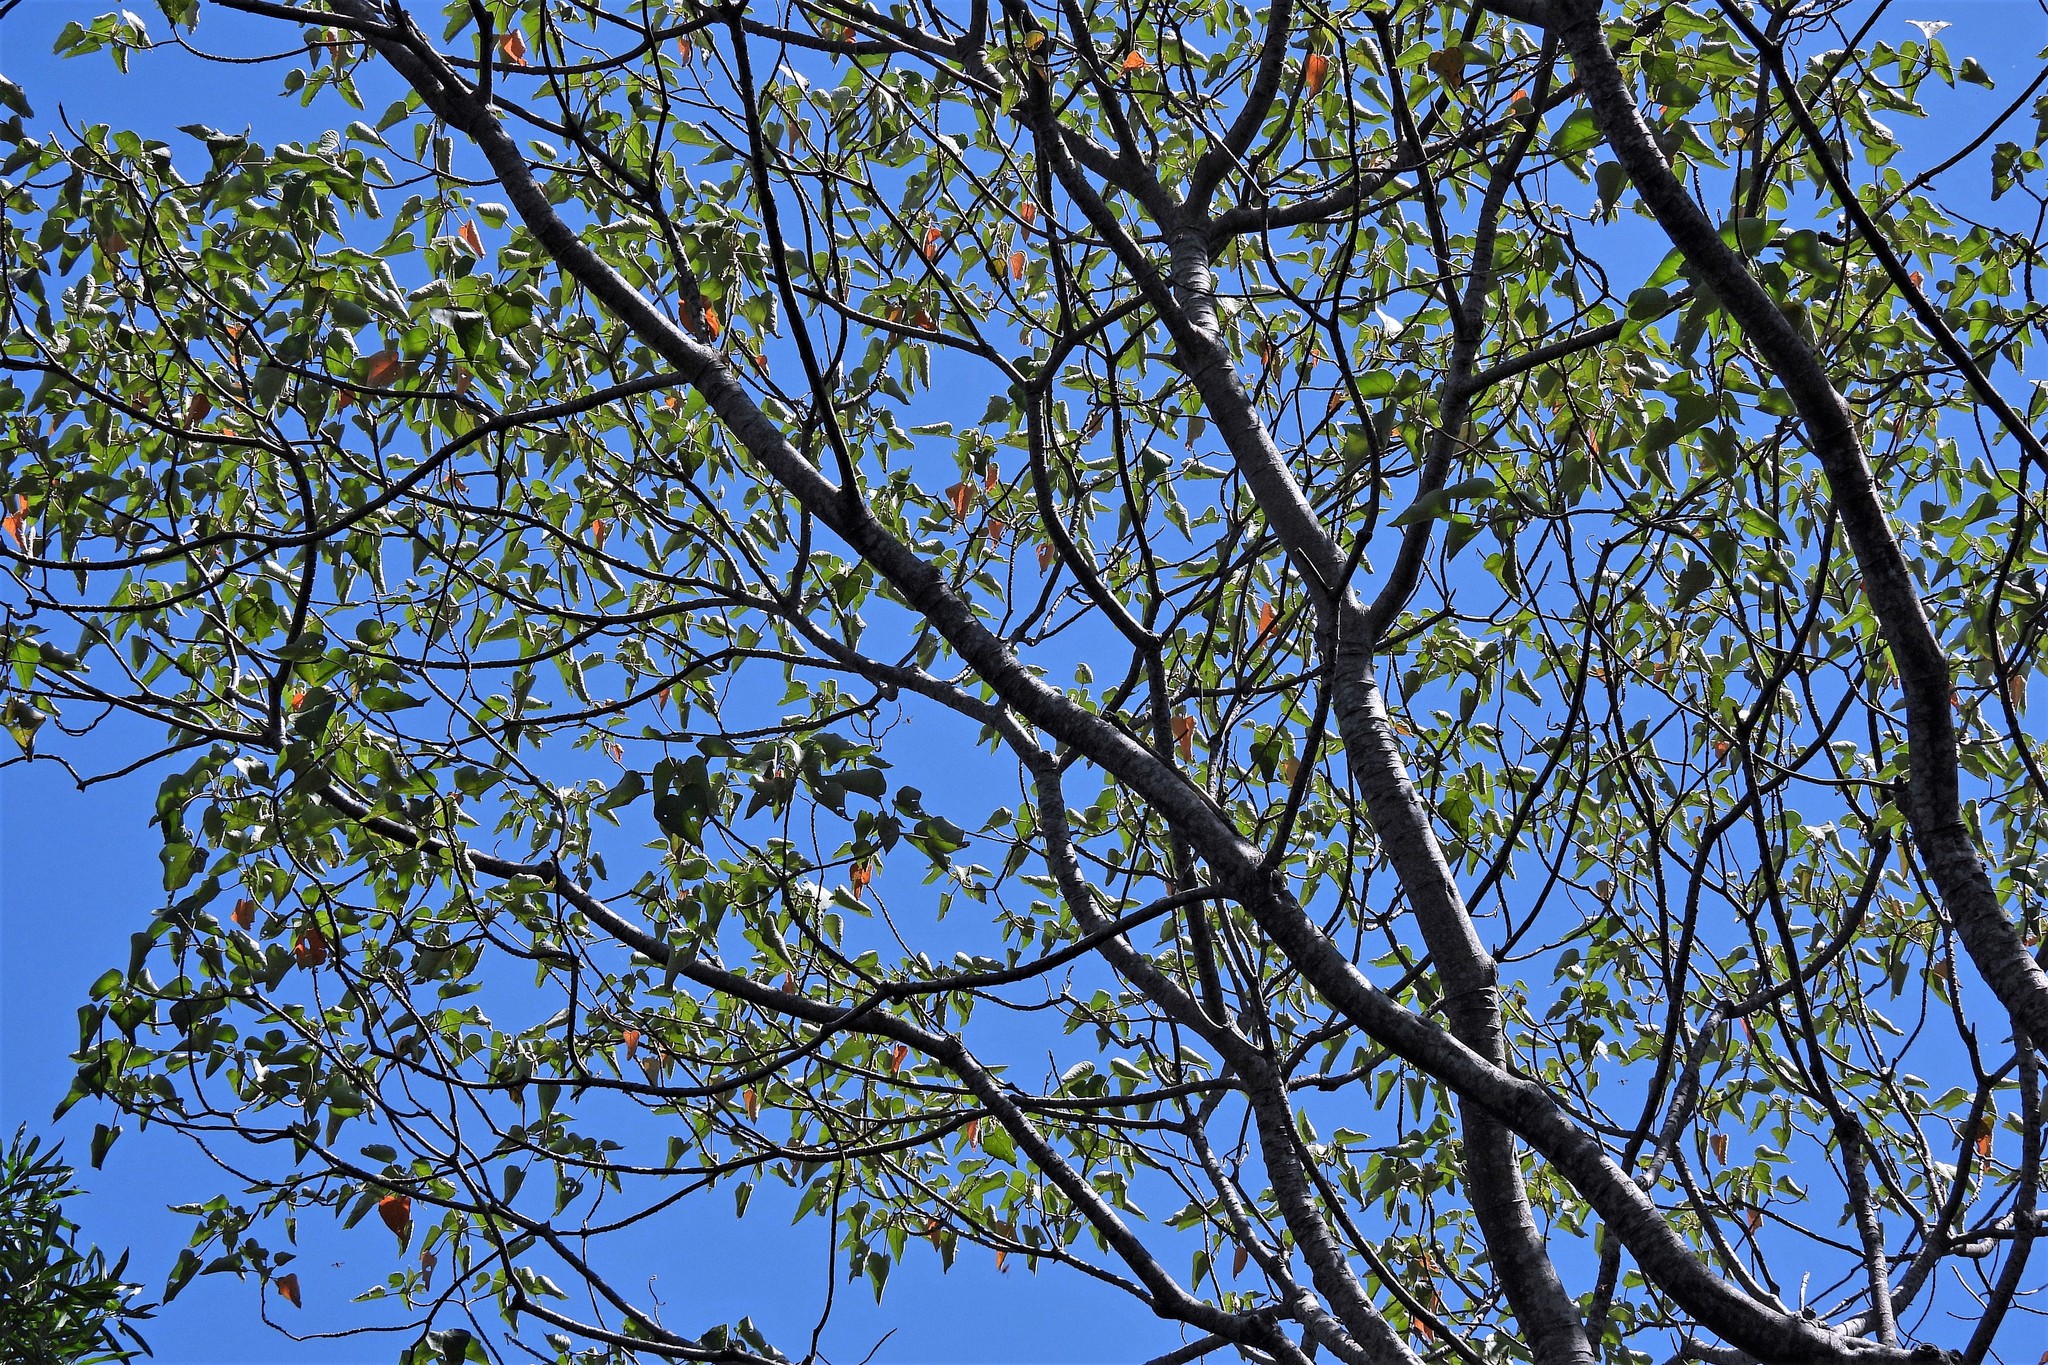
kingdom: Plantae
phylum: Tracheophyta
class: Magnoliopsida
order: Malpighiales
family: Euphorbiaceae
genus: Croton
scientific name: Croton urucurana
